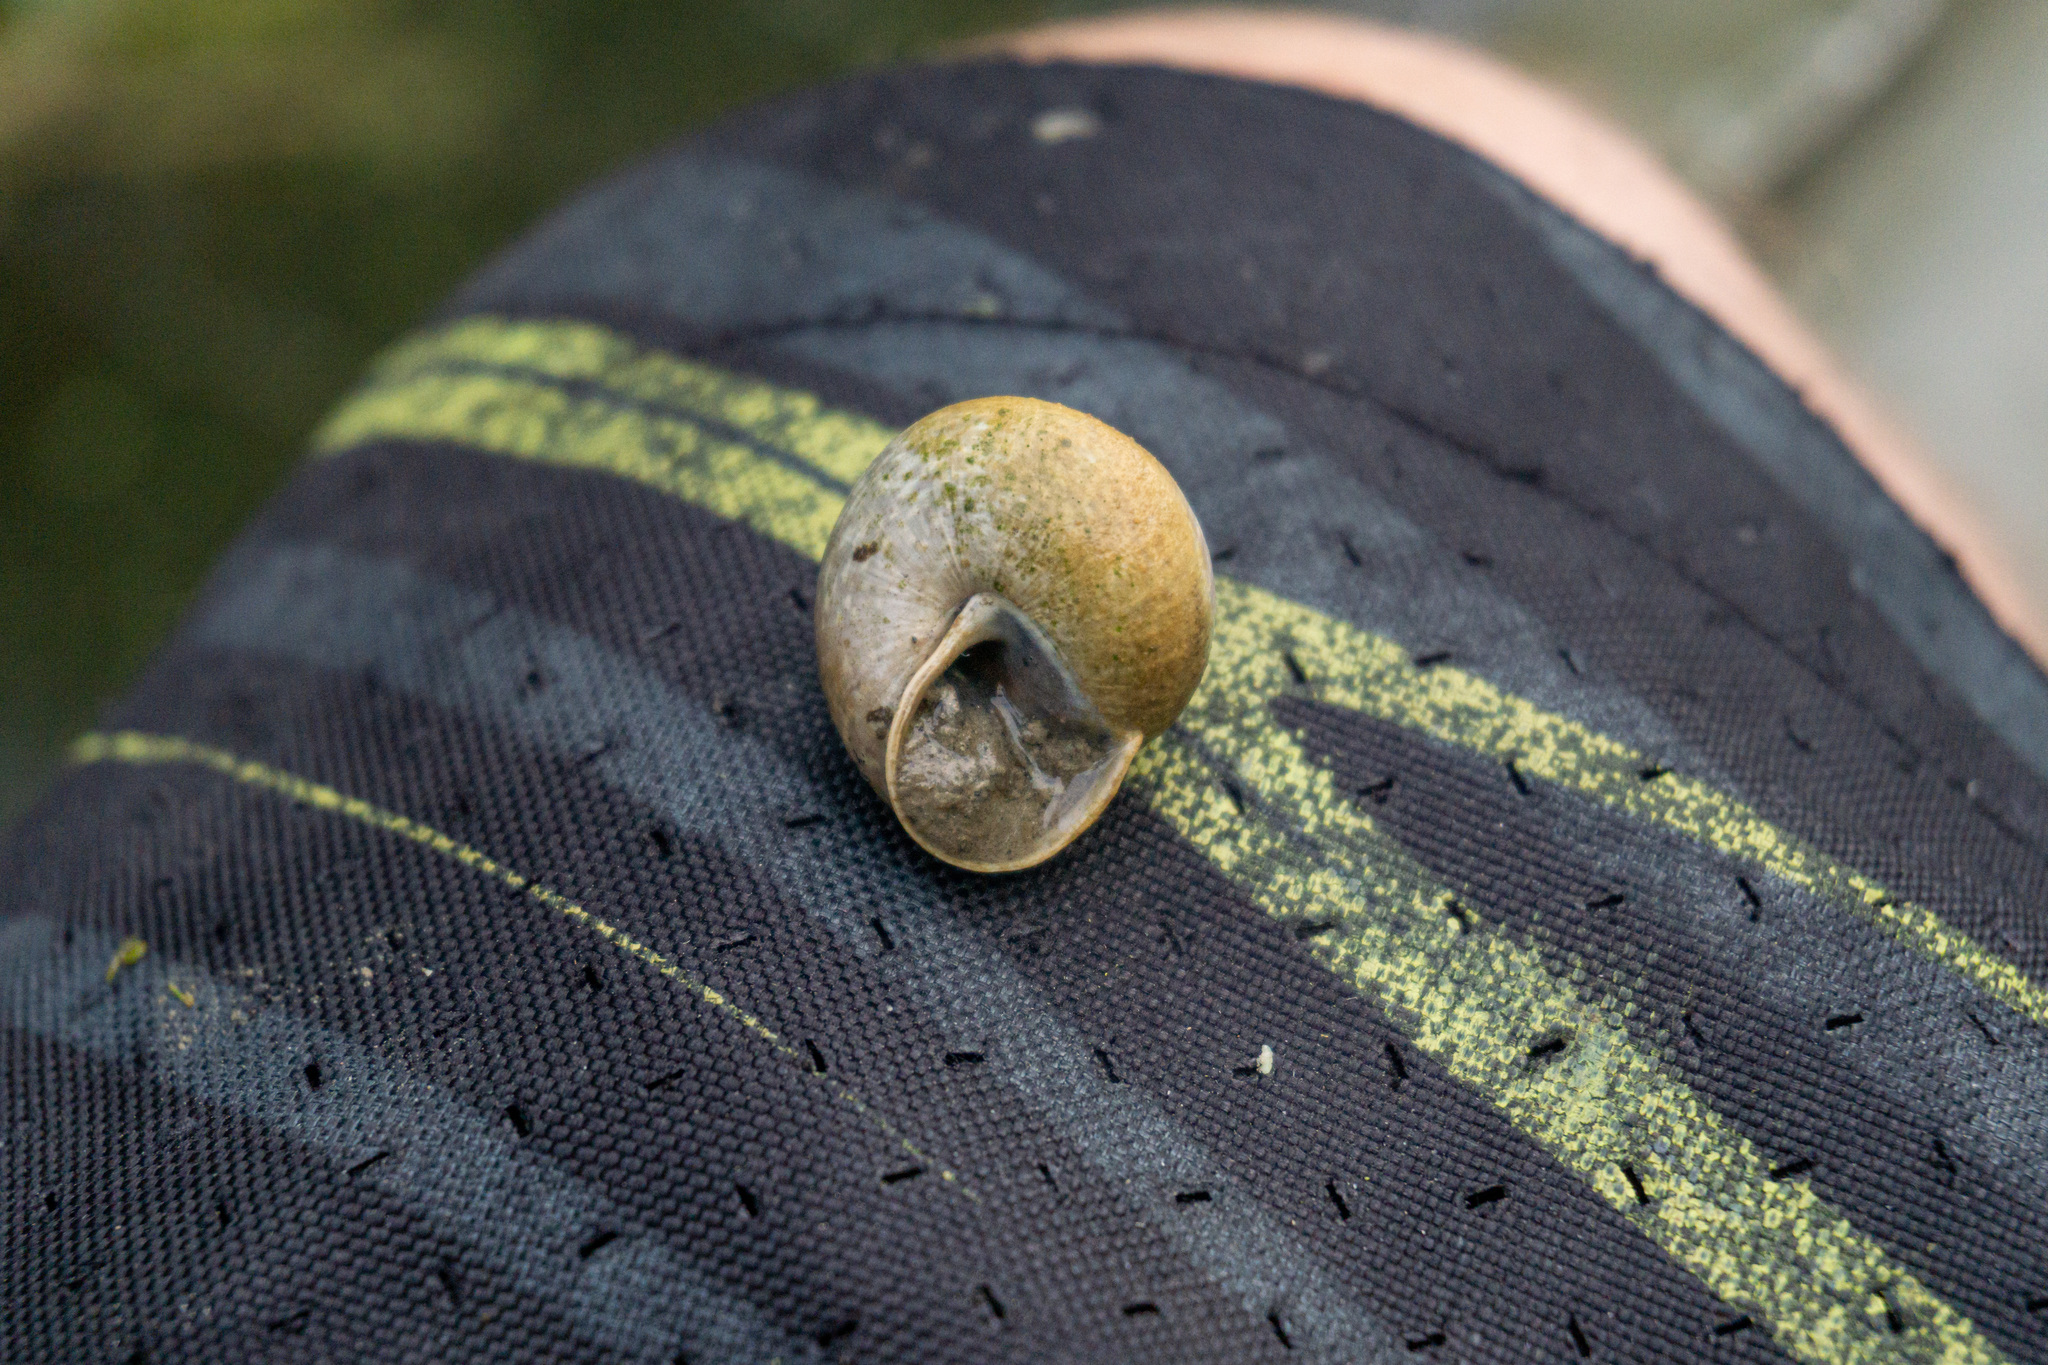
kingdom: Animalia
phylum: Mollusca
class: Gastropoda
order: Stylommatophora
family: Helicidae
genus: Arianta
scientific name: Arianta arbustorum
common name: Copse snail
